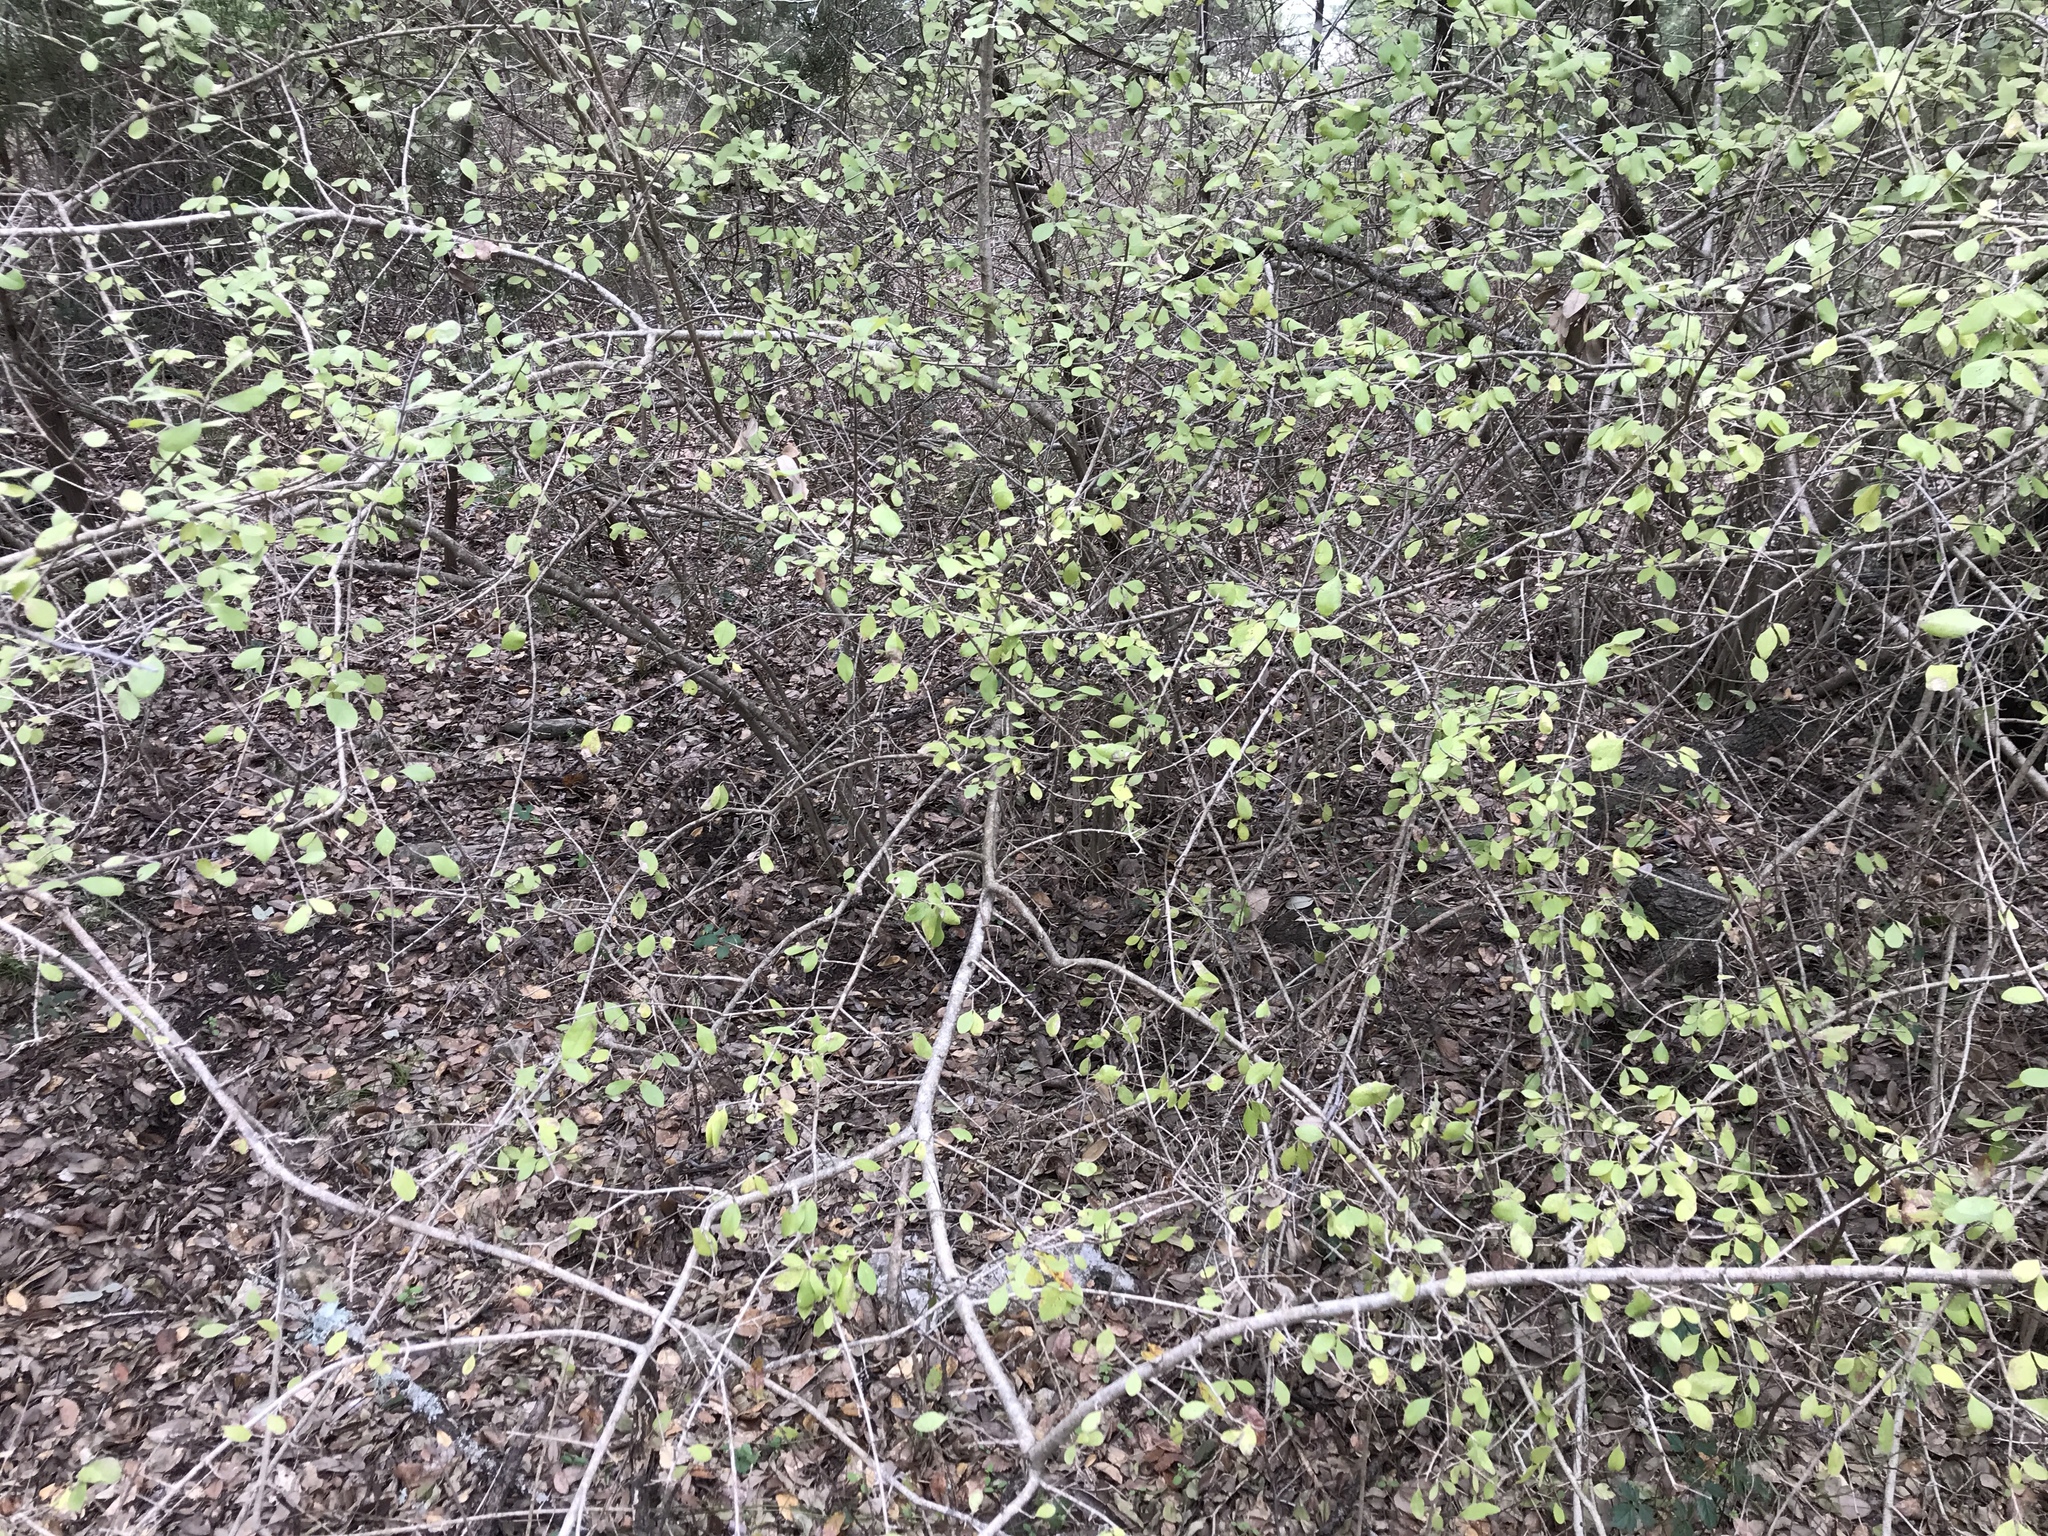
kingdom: Plantae
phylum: Tracheophyta
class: Magnoliopsida
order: Lamiales
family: Oleaceae
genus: Forestiera
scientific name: Forestiera pubescens
